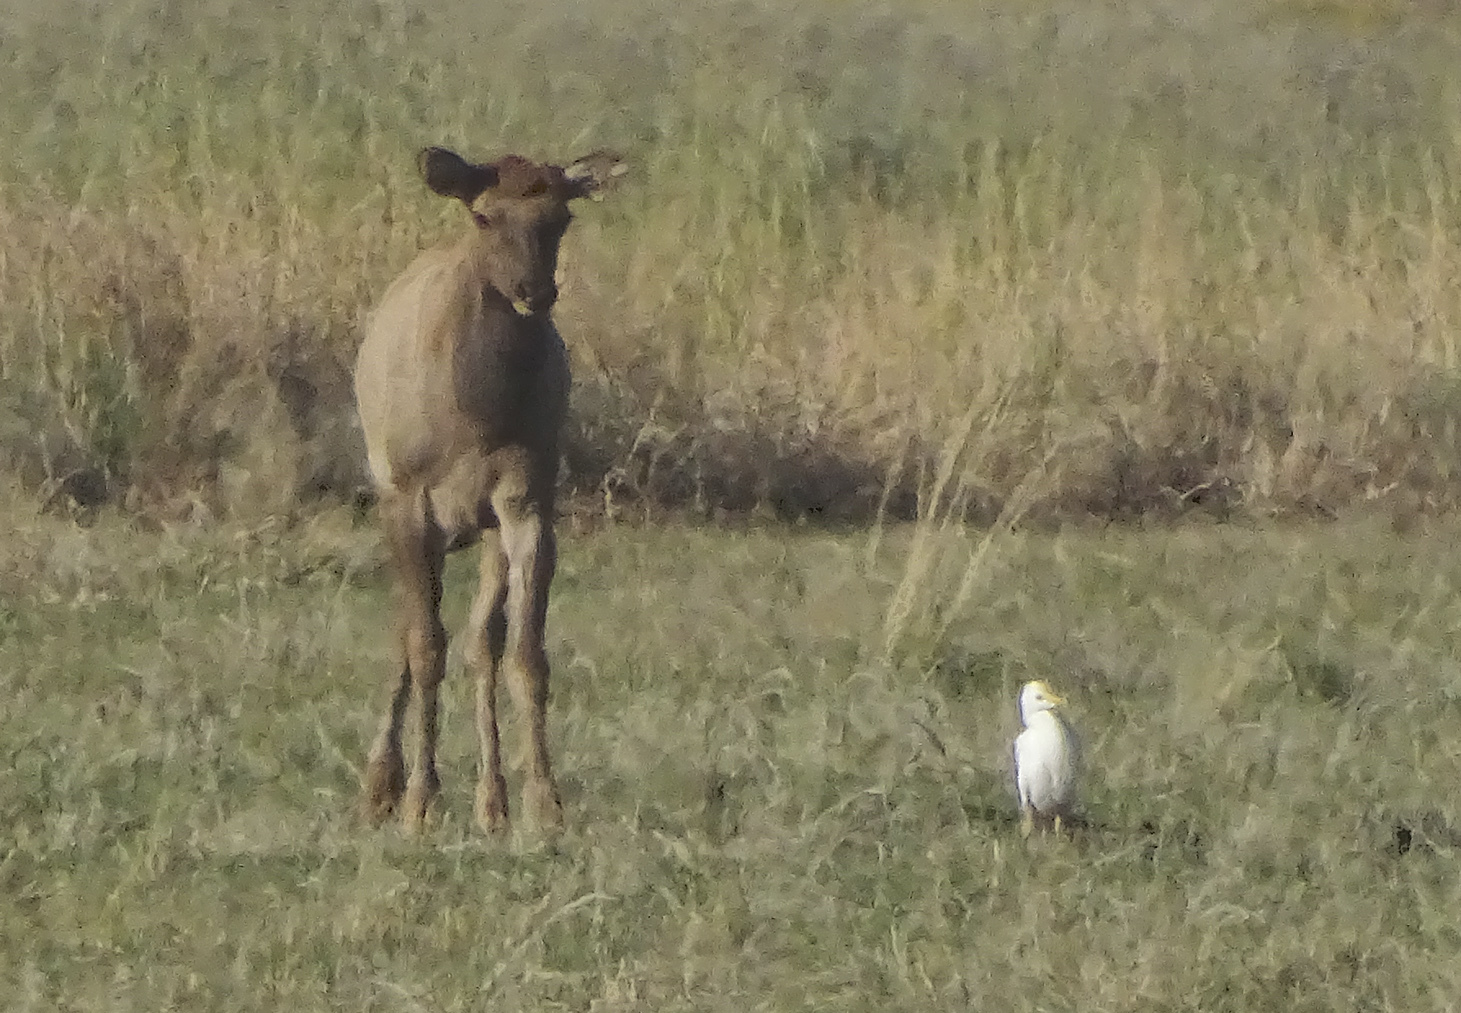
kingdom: Animalia
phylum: Chordata
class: Mammalia
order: Artiodactyla
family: Cervidae
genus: Cervus
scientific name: Cervus elaphus
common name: Red deer
